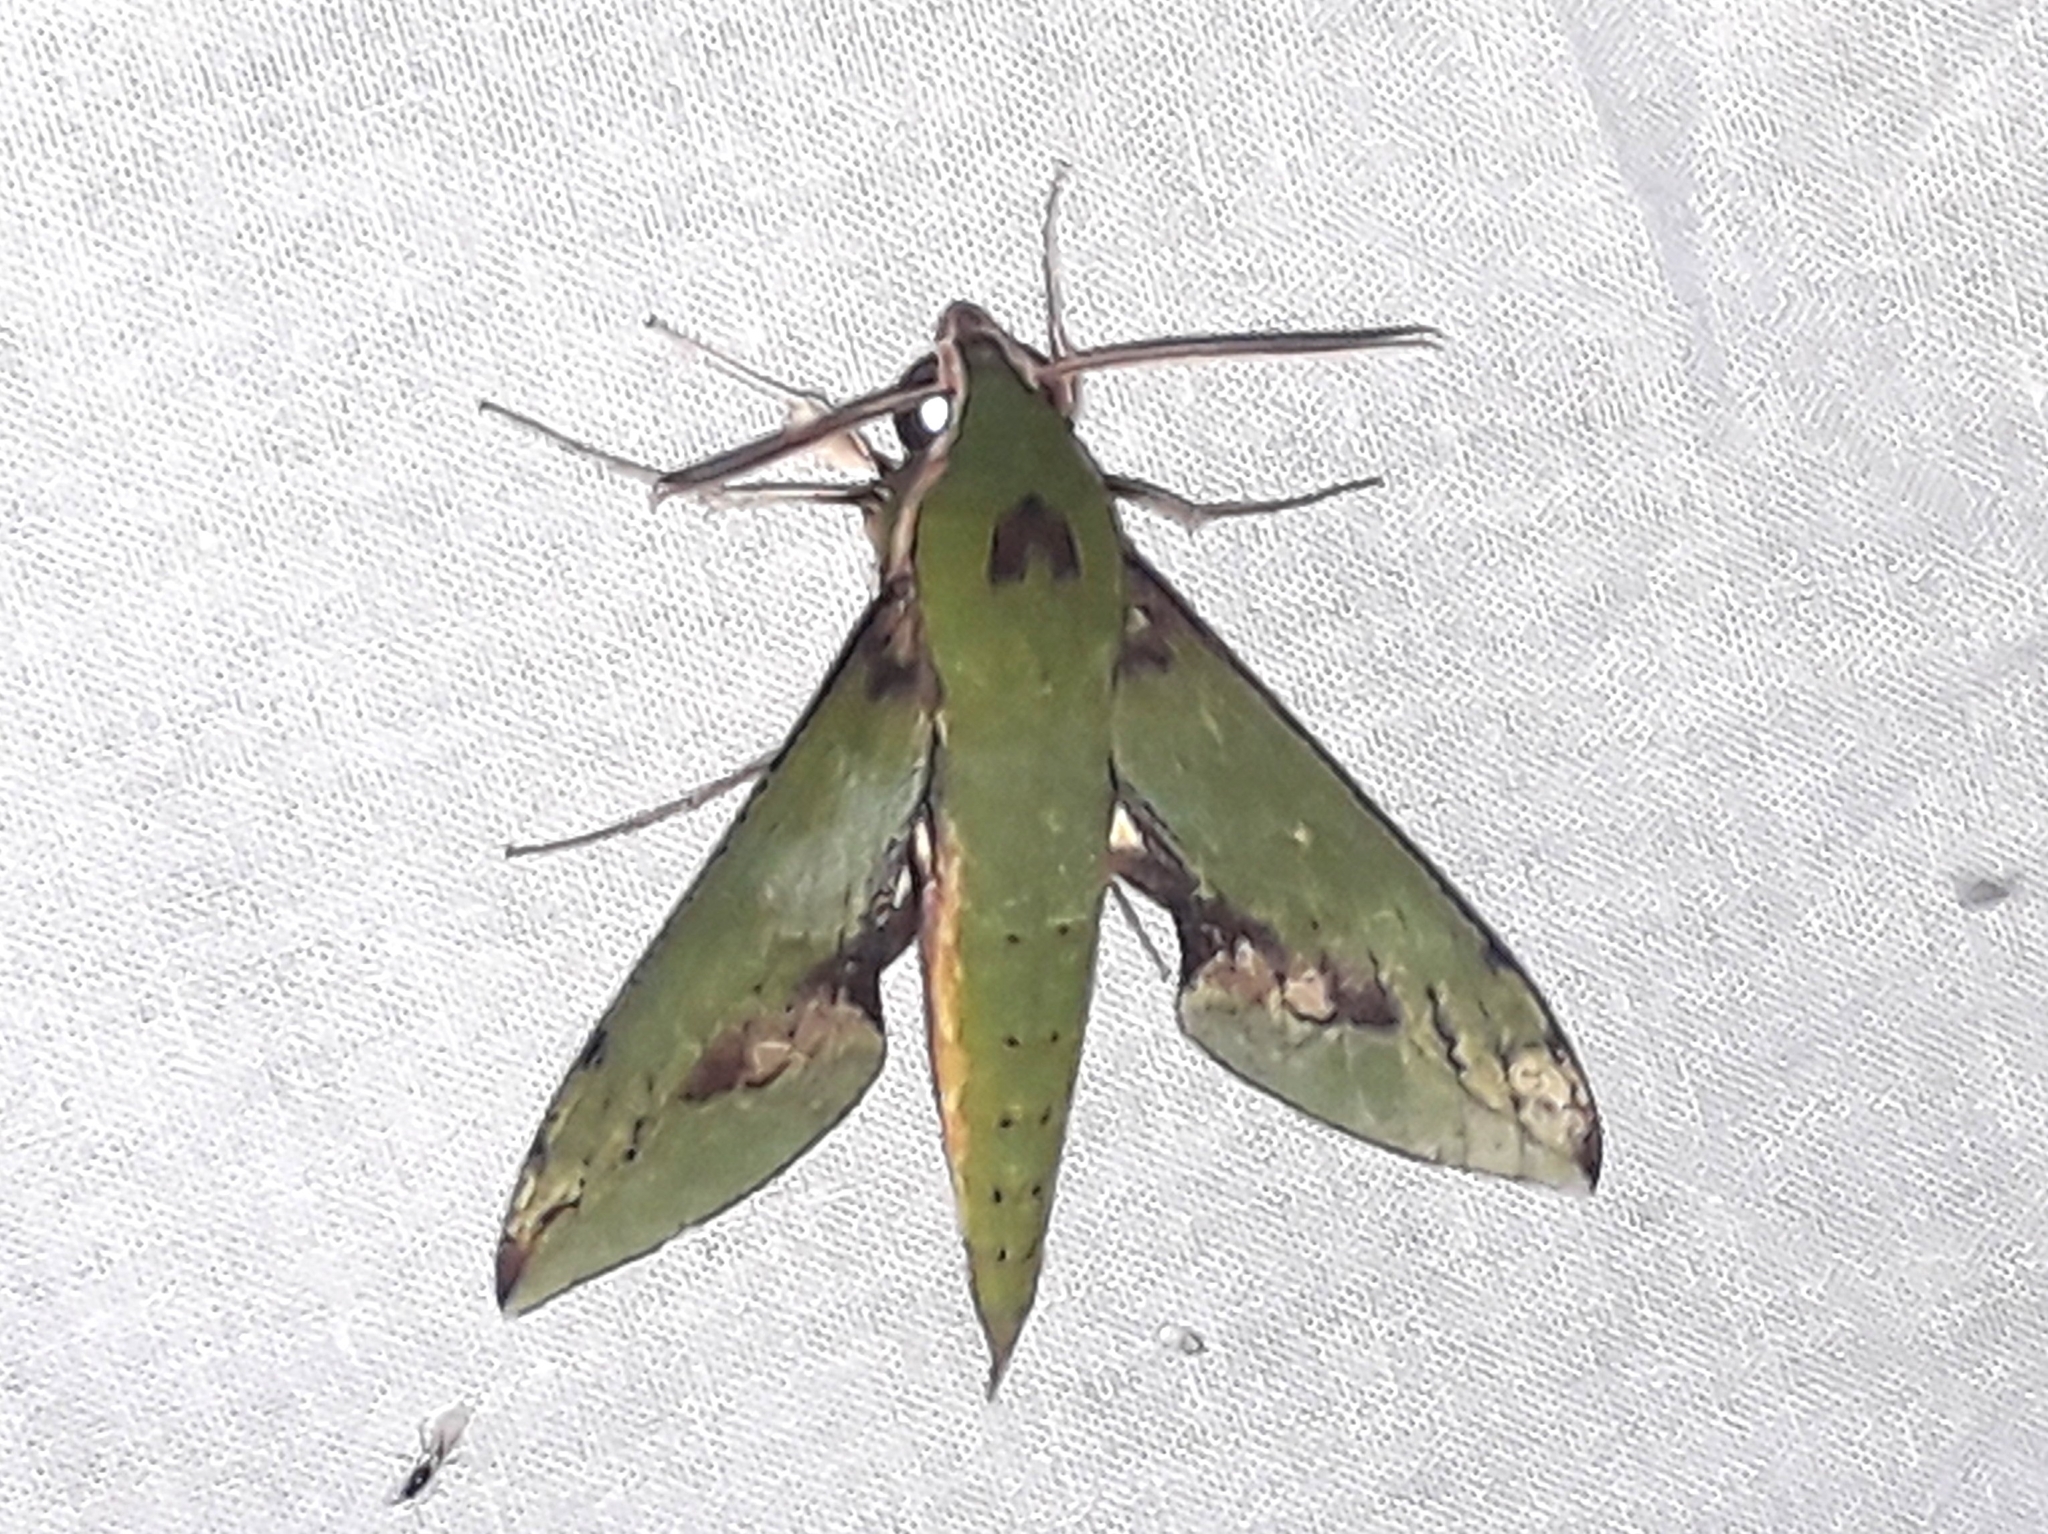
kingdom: Animalia
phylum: Arthropoda
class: Insecta
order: Lepidoptera
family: Sphingidae
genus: Xylophanes
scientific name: Xylophanes chiron
